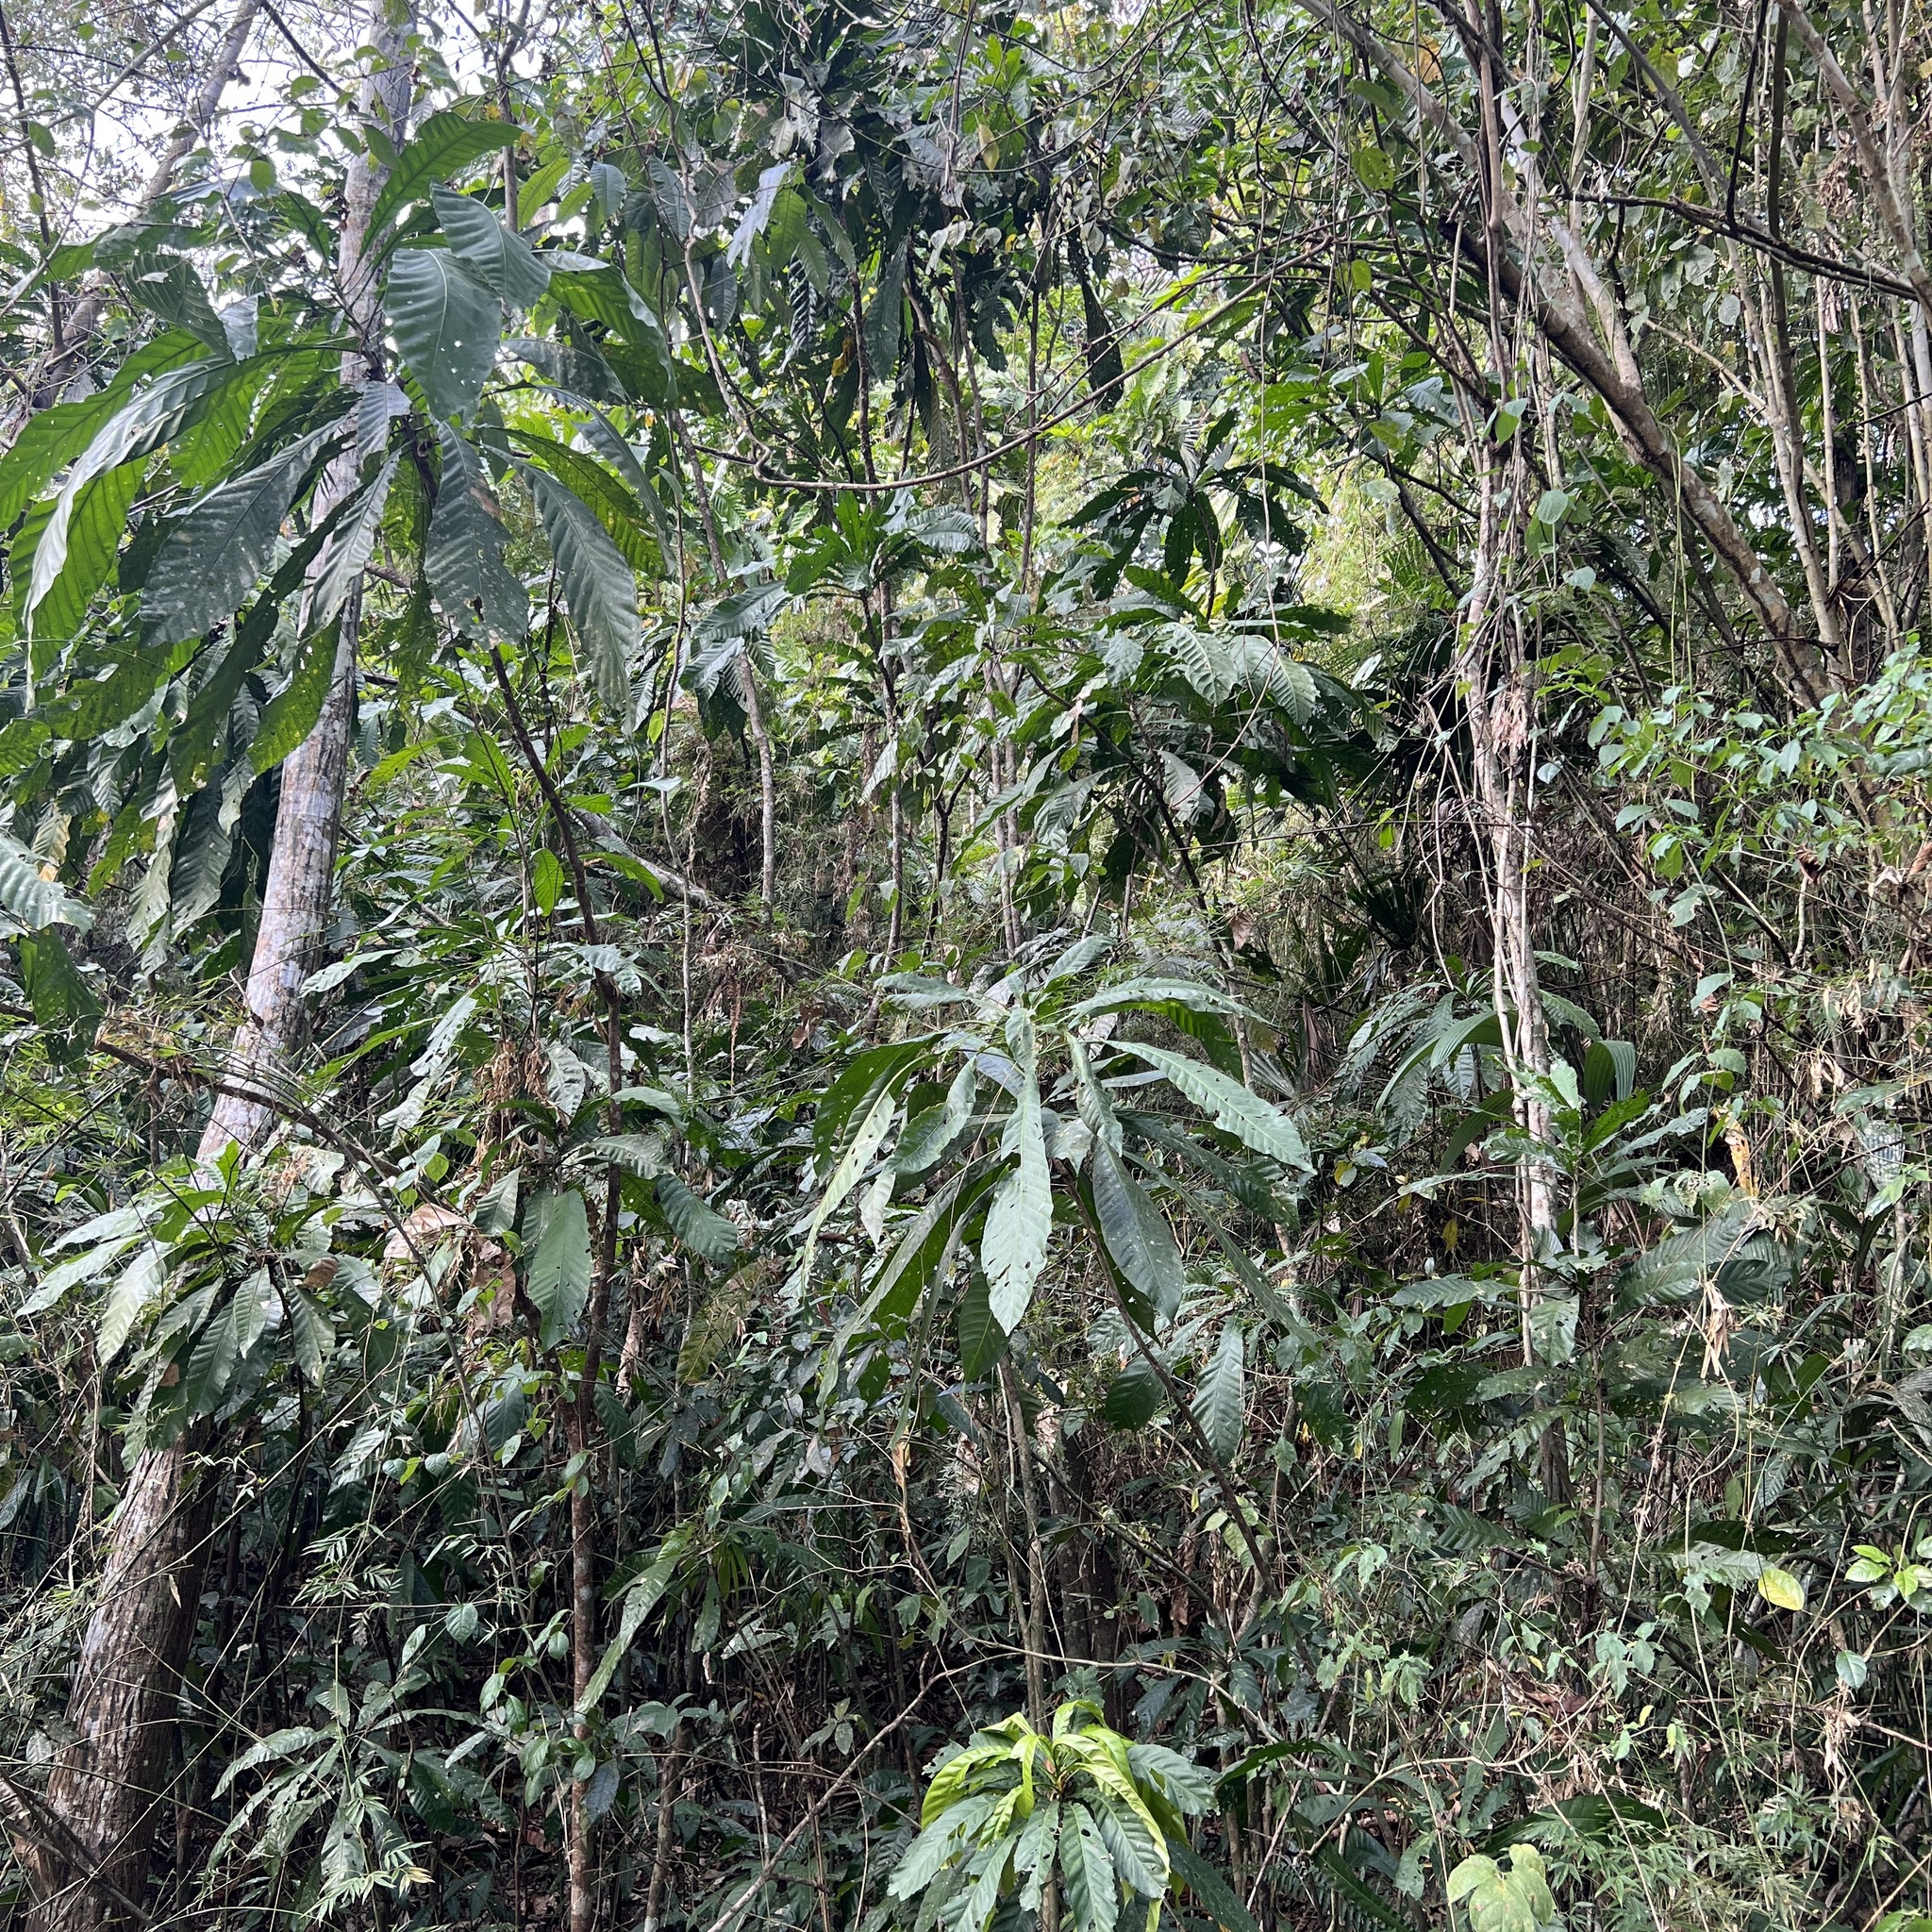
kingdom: Plantae
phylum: Tracheophyta
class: Magnoliopsida
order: Ericales
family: Lecythidaceae
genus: Gustavia
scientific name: Gustavia superba
